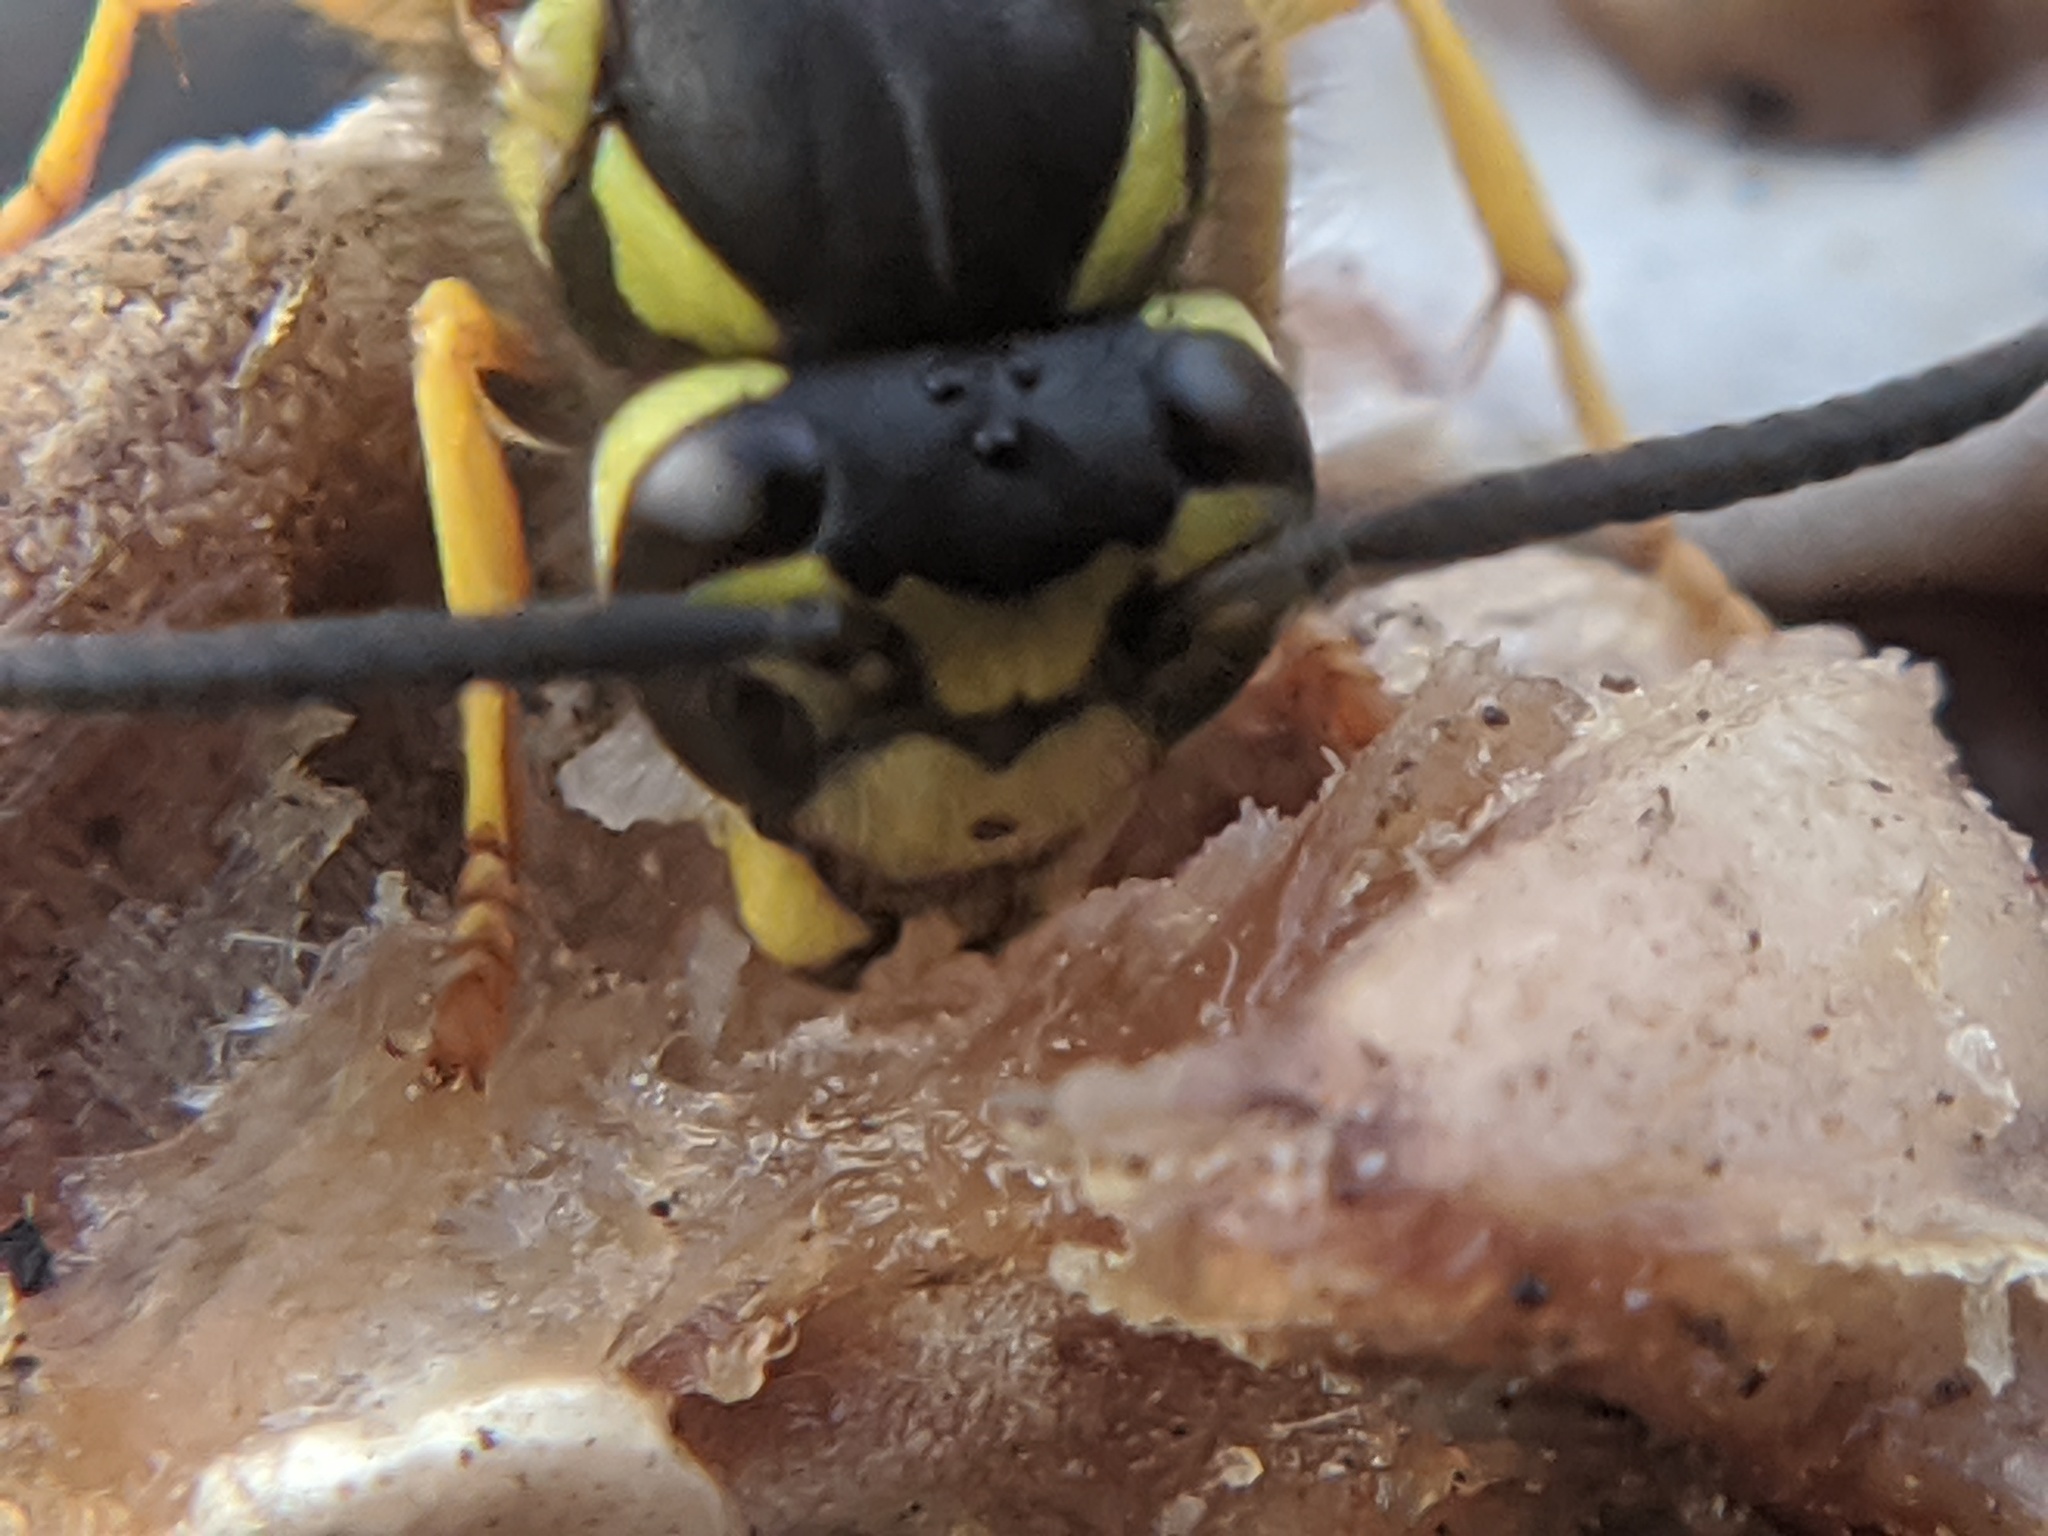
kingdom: Animalia
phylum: Arthropoda
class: Insecta
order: Hymenoptera
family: Vespidae
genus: Vespula
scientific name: Vespula germanica
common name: German wasp
